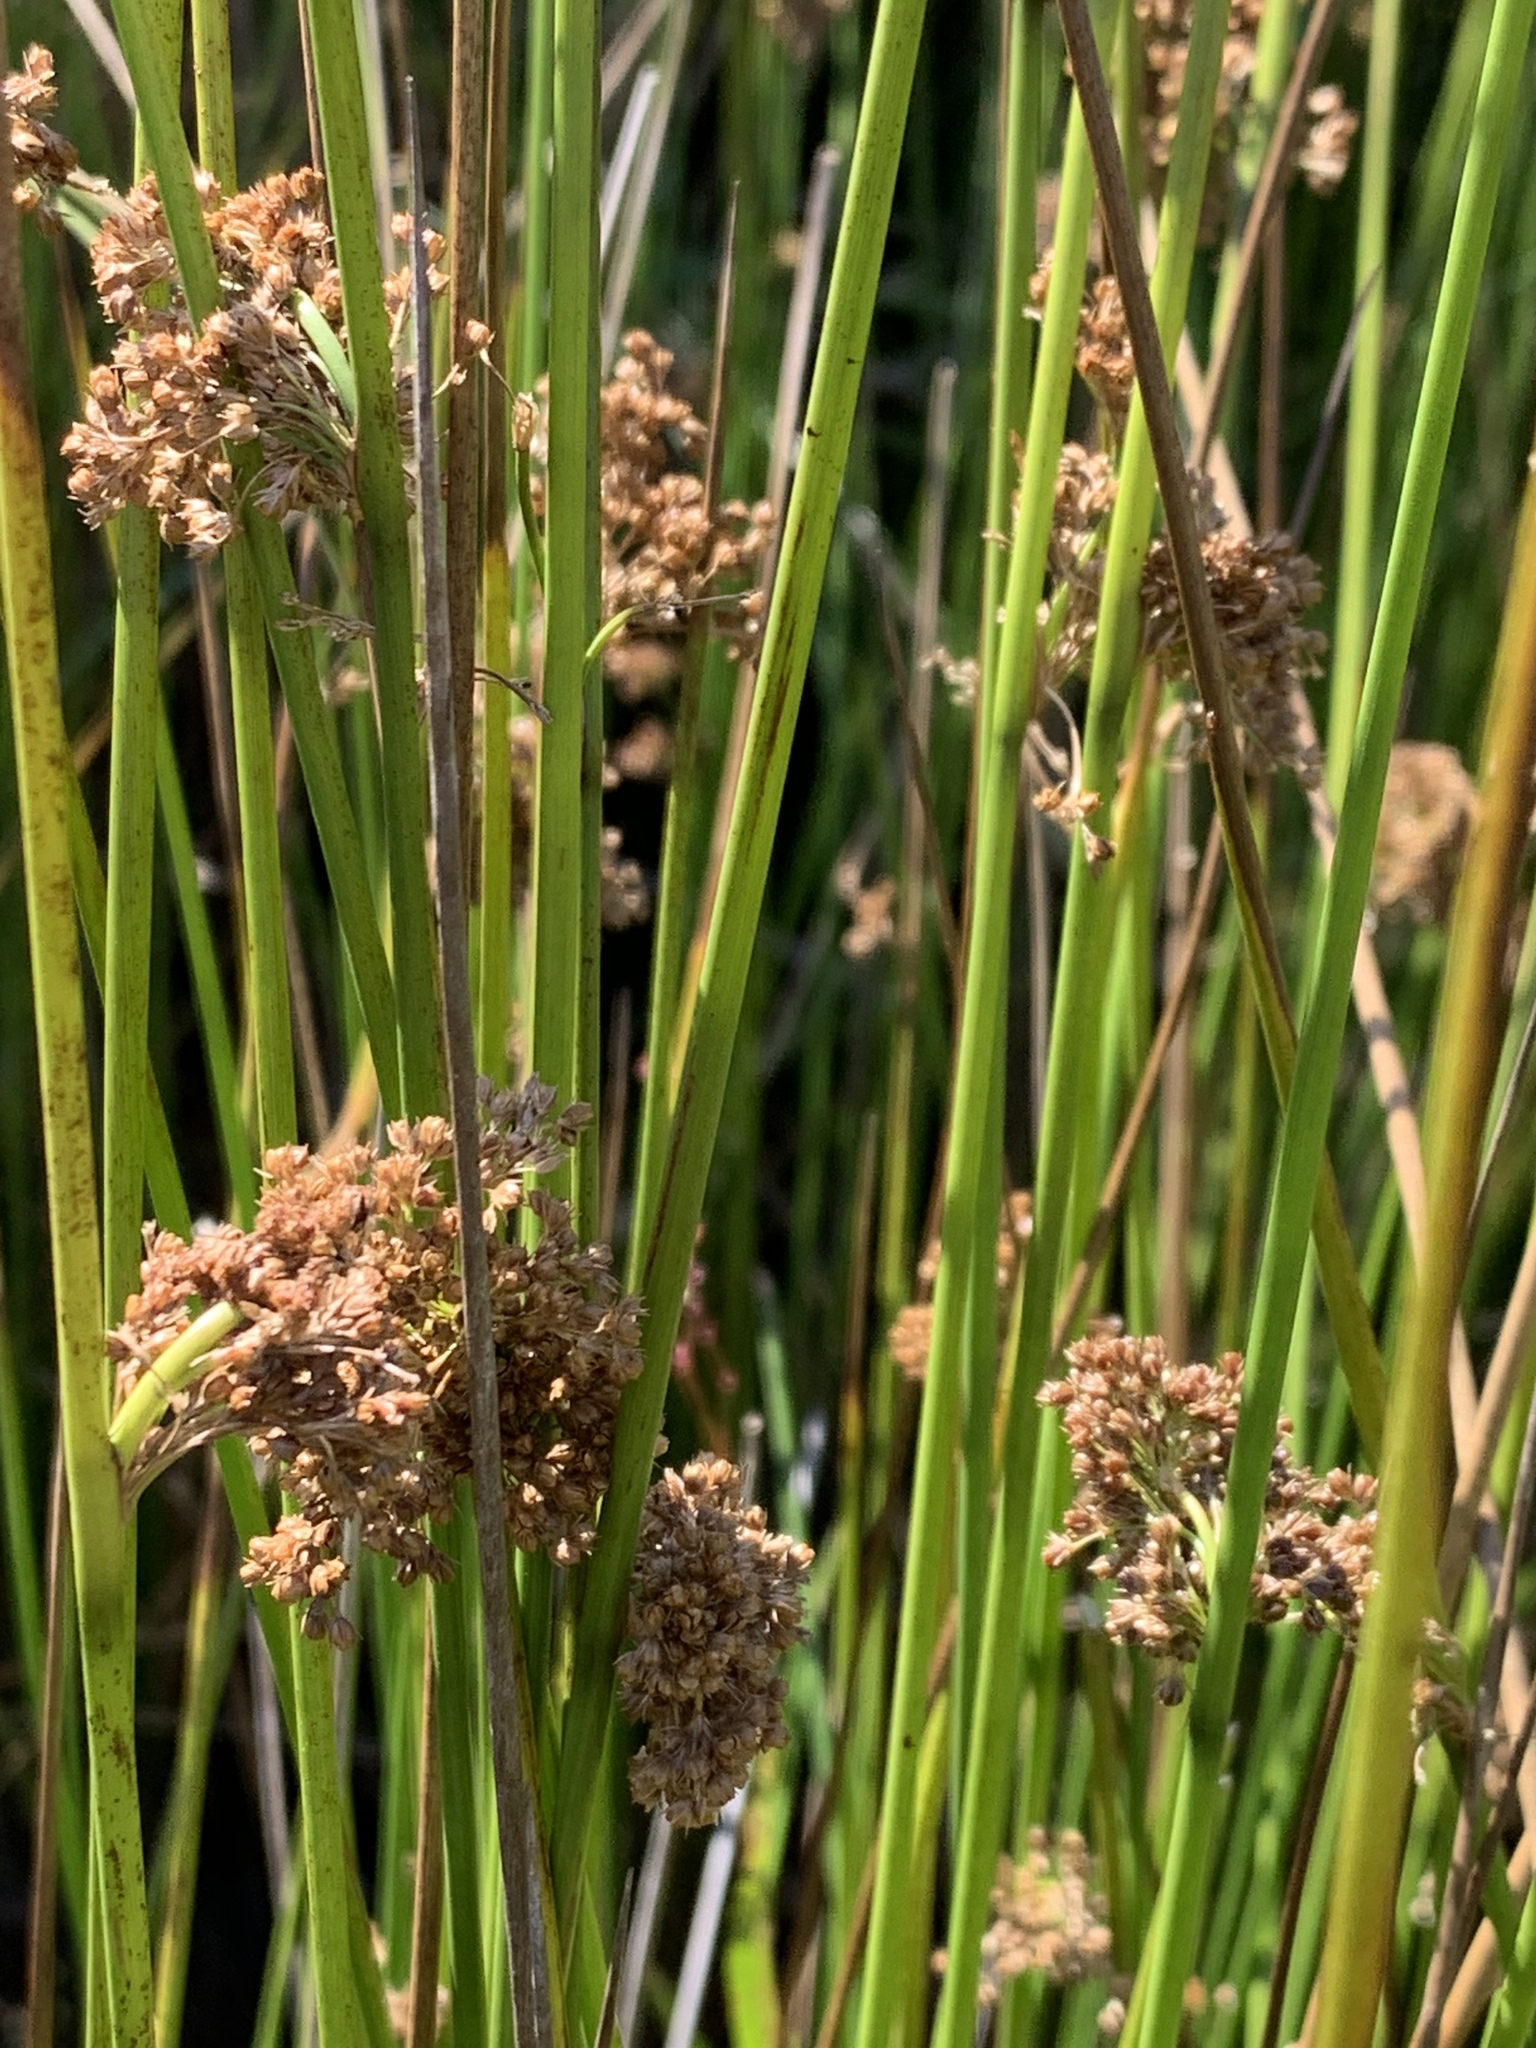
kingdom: Plantae
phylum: Tracheophyta
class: Liliopsida
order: Poales
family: Juncaceae
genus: Juncus
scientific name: Juncus effusus
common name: Soft rush
